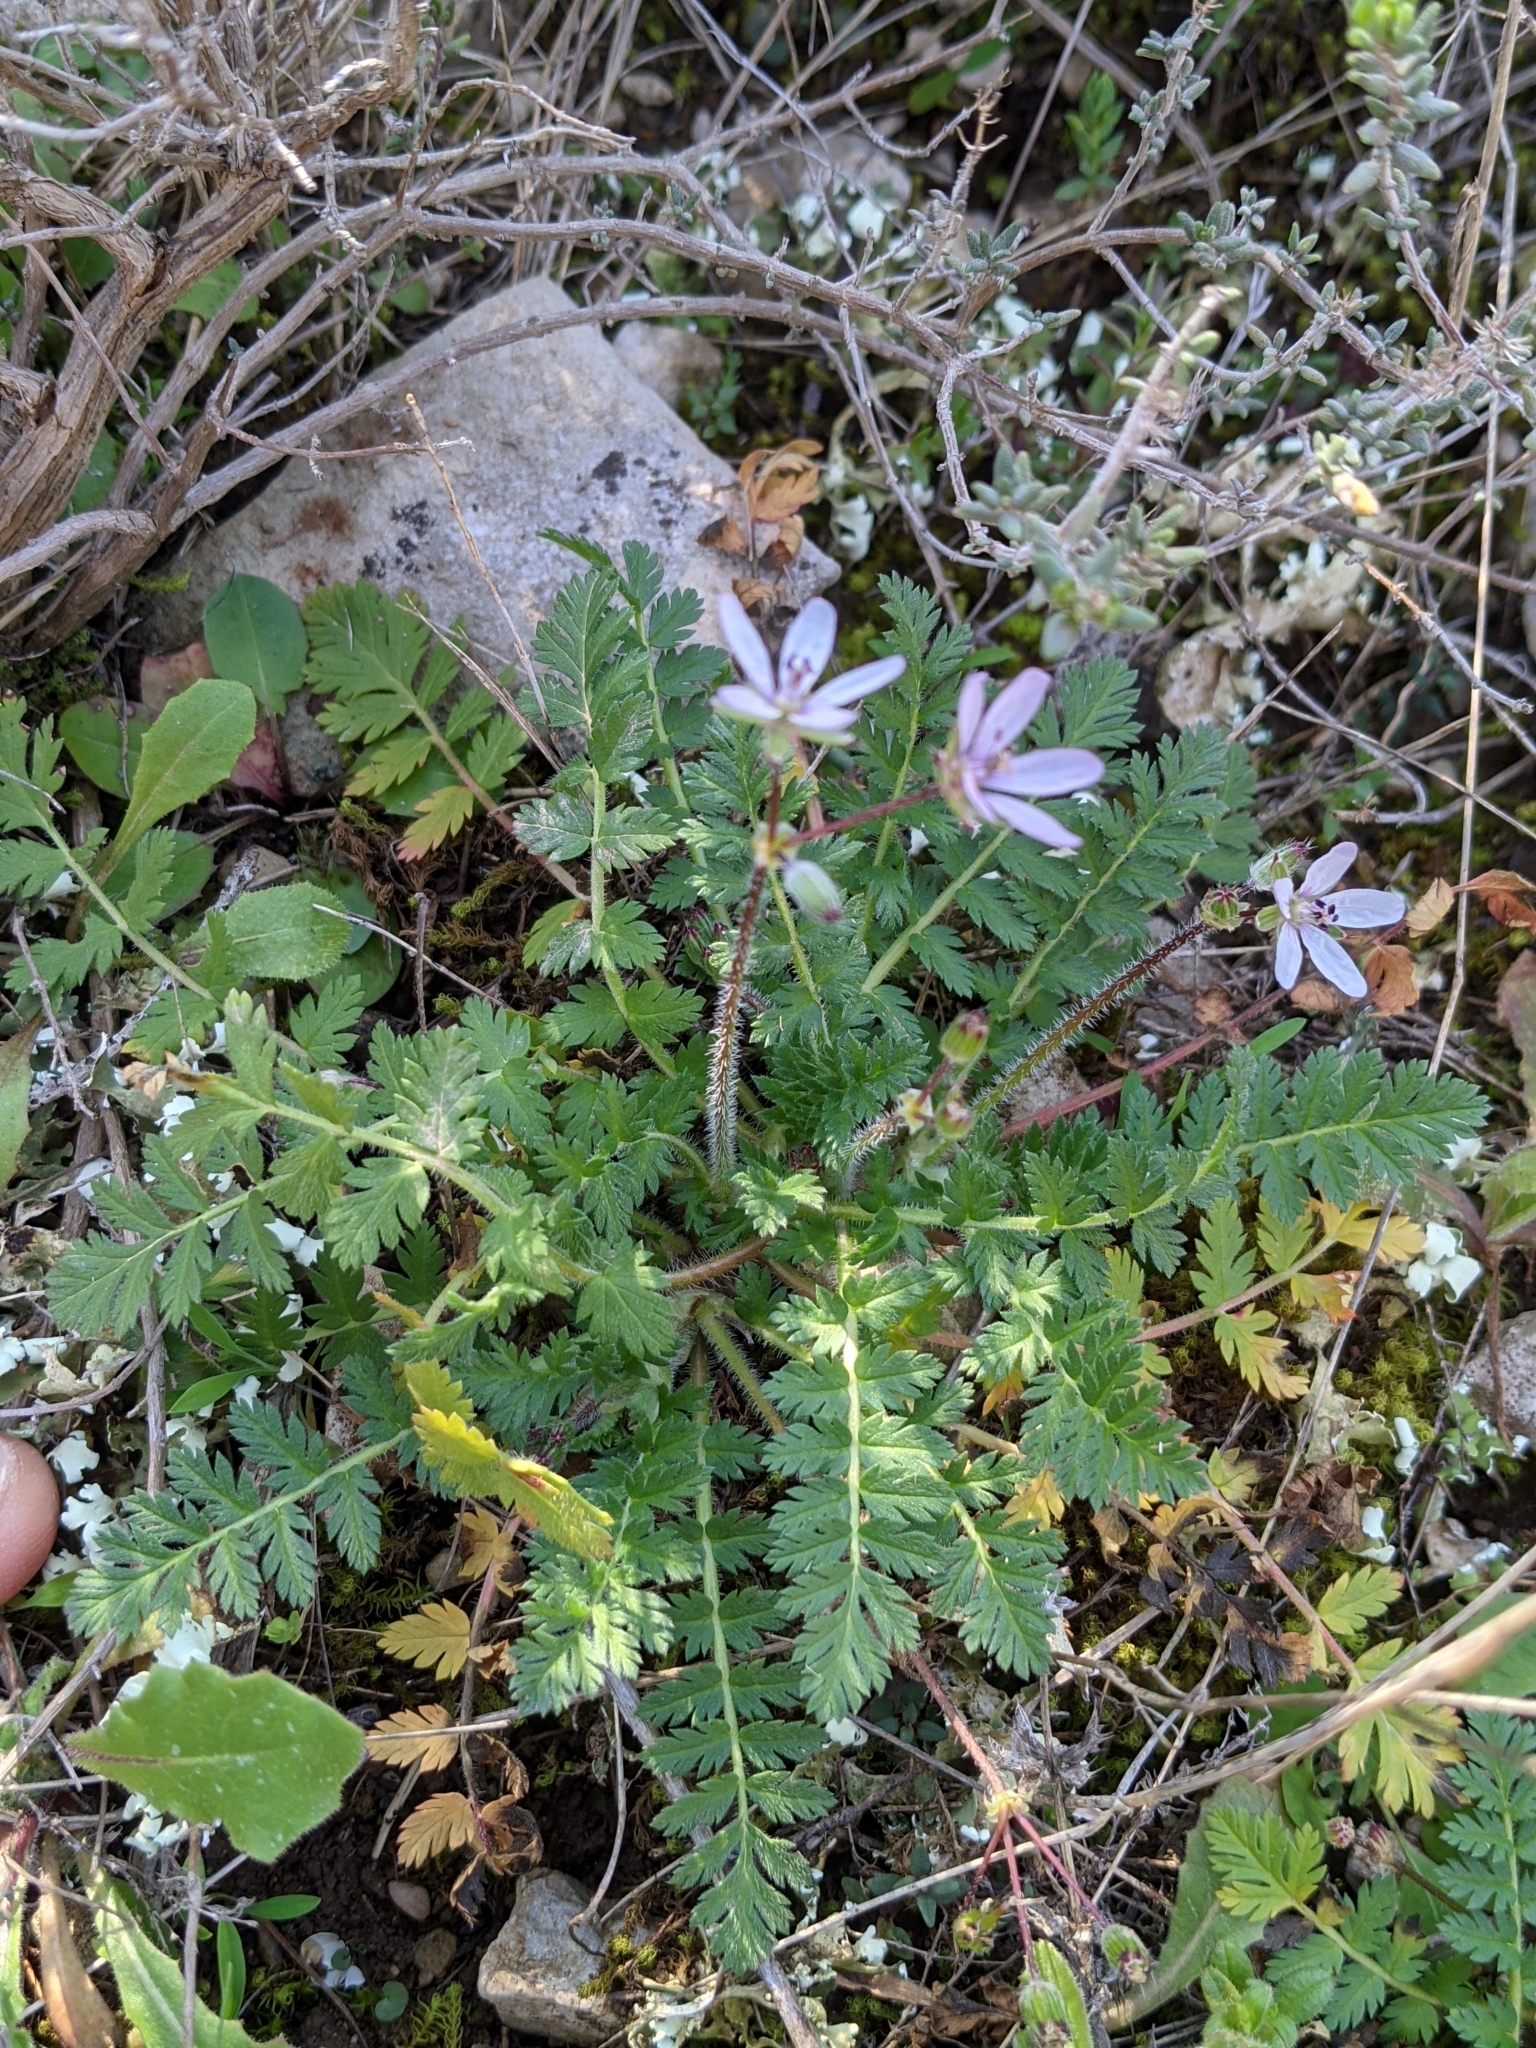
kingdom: Plantae
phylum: Tracheophyta
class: Magnoliopsida
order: Geraniales
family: Geraniaceae
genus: Erodium
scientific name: Erodium cicutarium
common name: Common stork's-bill
